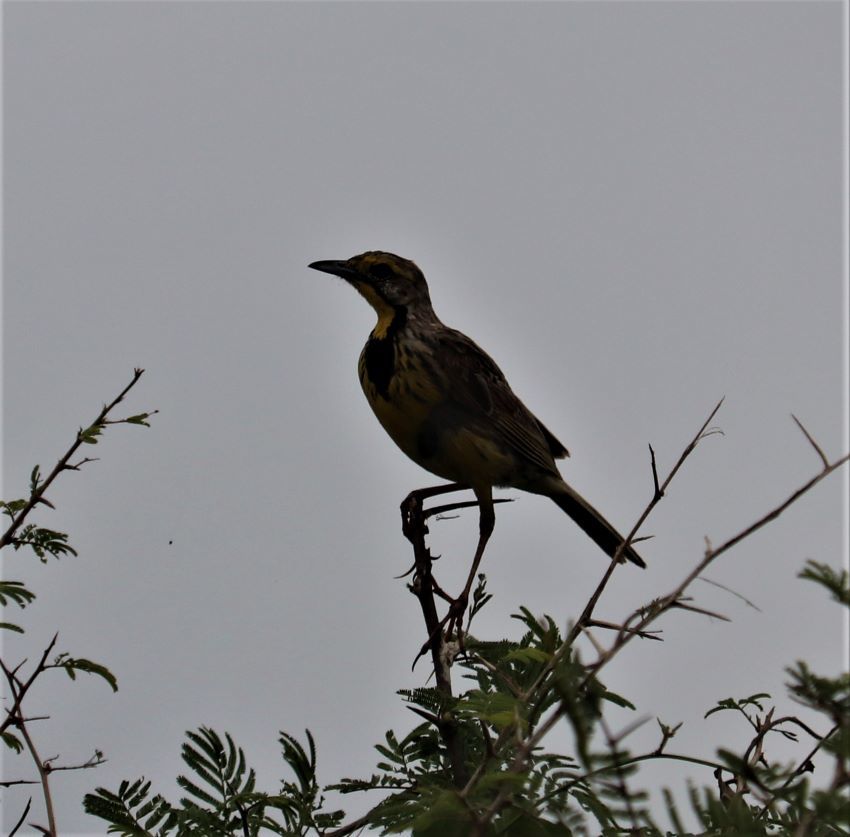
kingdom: Animalia
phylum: Chordata
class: Aves
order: Passeriformes
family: Motacillidae
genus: Macronyx
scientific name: Macronyx croceus
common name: Yellow-throated longclaw
